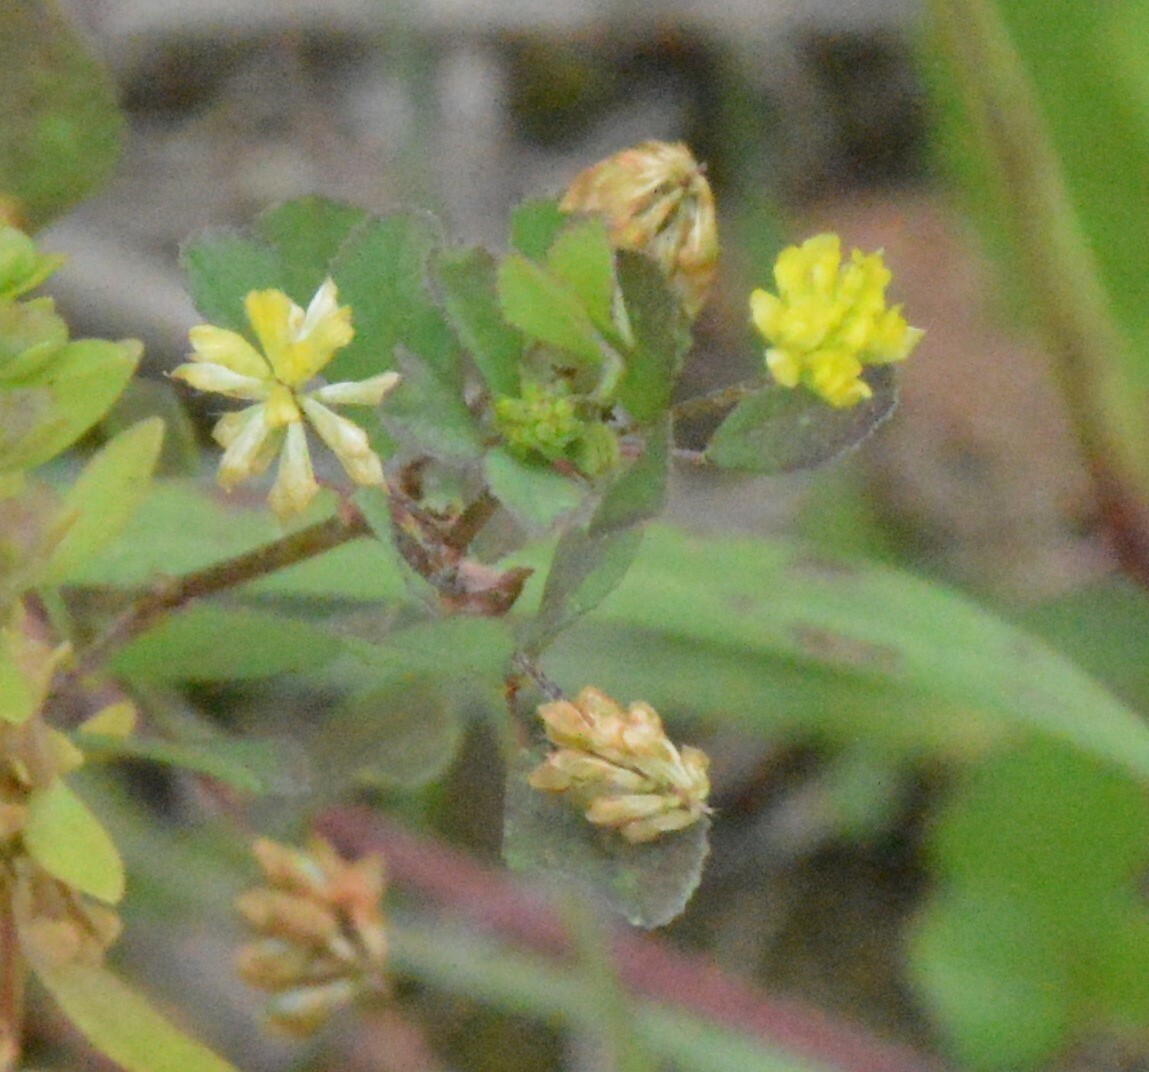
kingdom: Plantae
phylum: Tracheophyta
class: Magnoliopsida
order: Fabales
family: Fabaceae
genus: Trifolium
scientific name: Trifolium dubium
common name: Suckling clover
